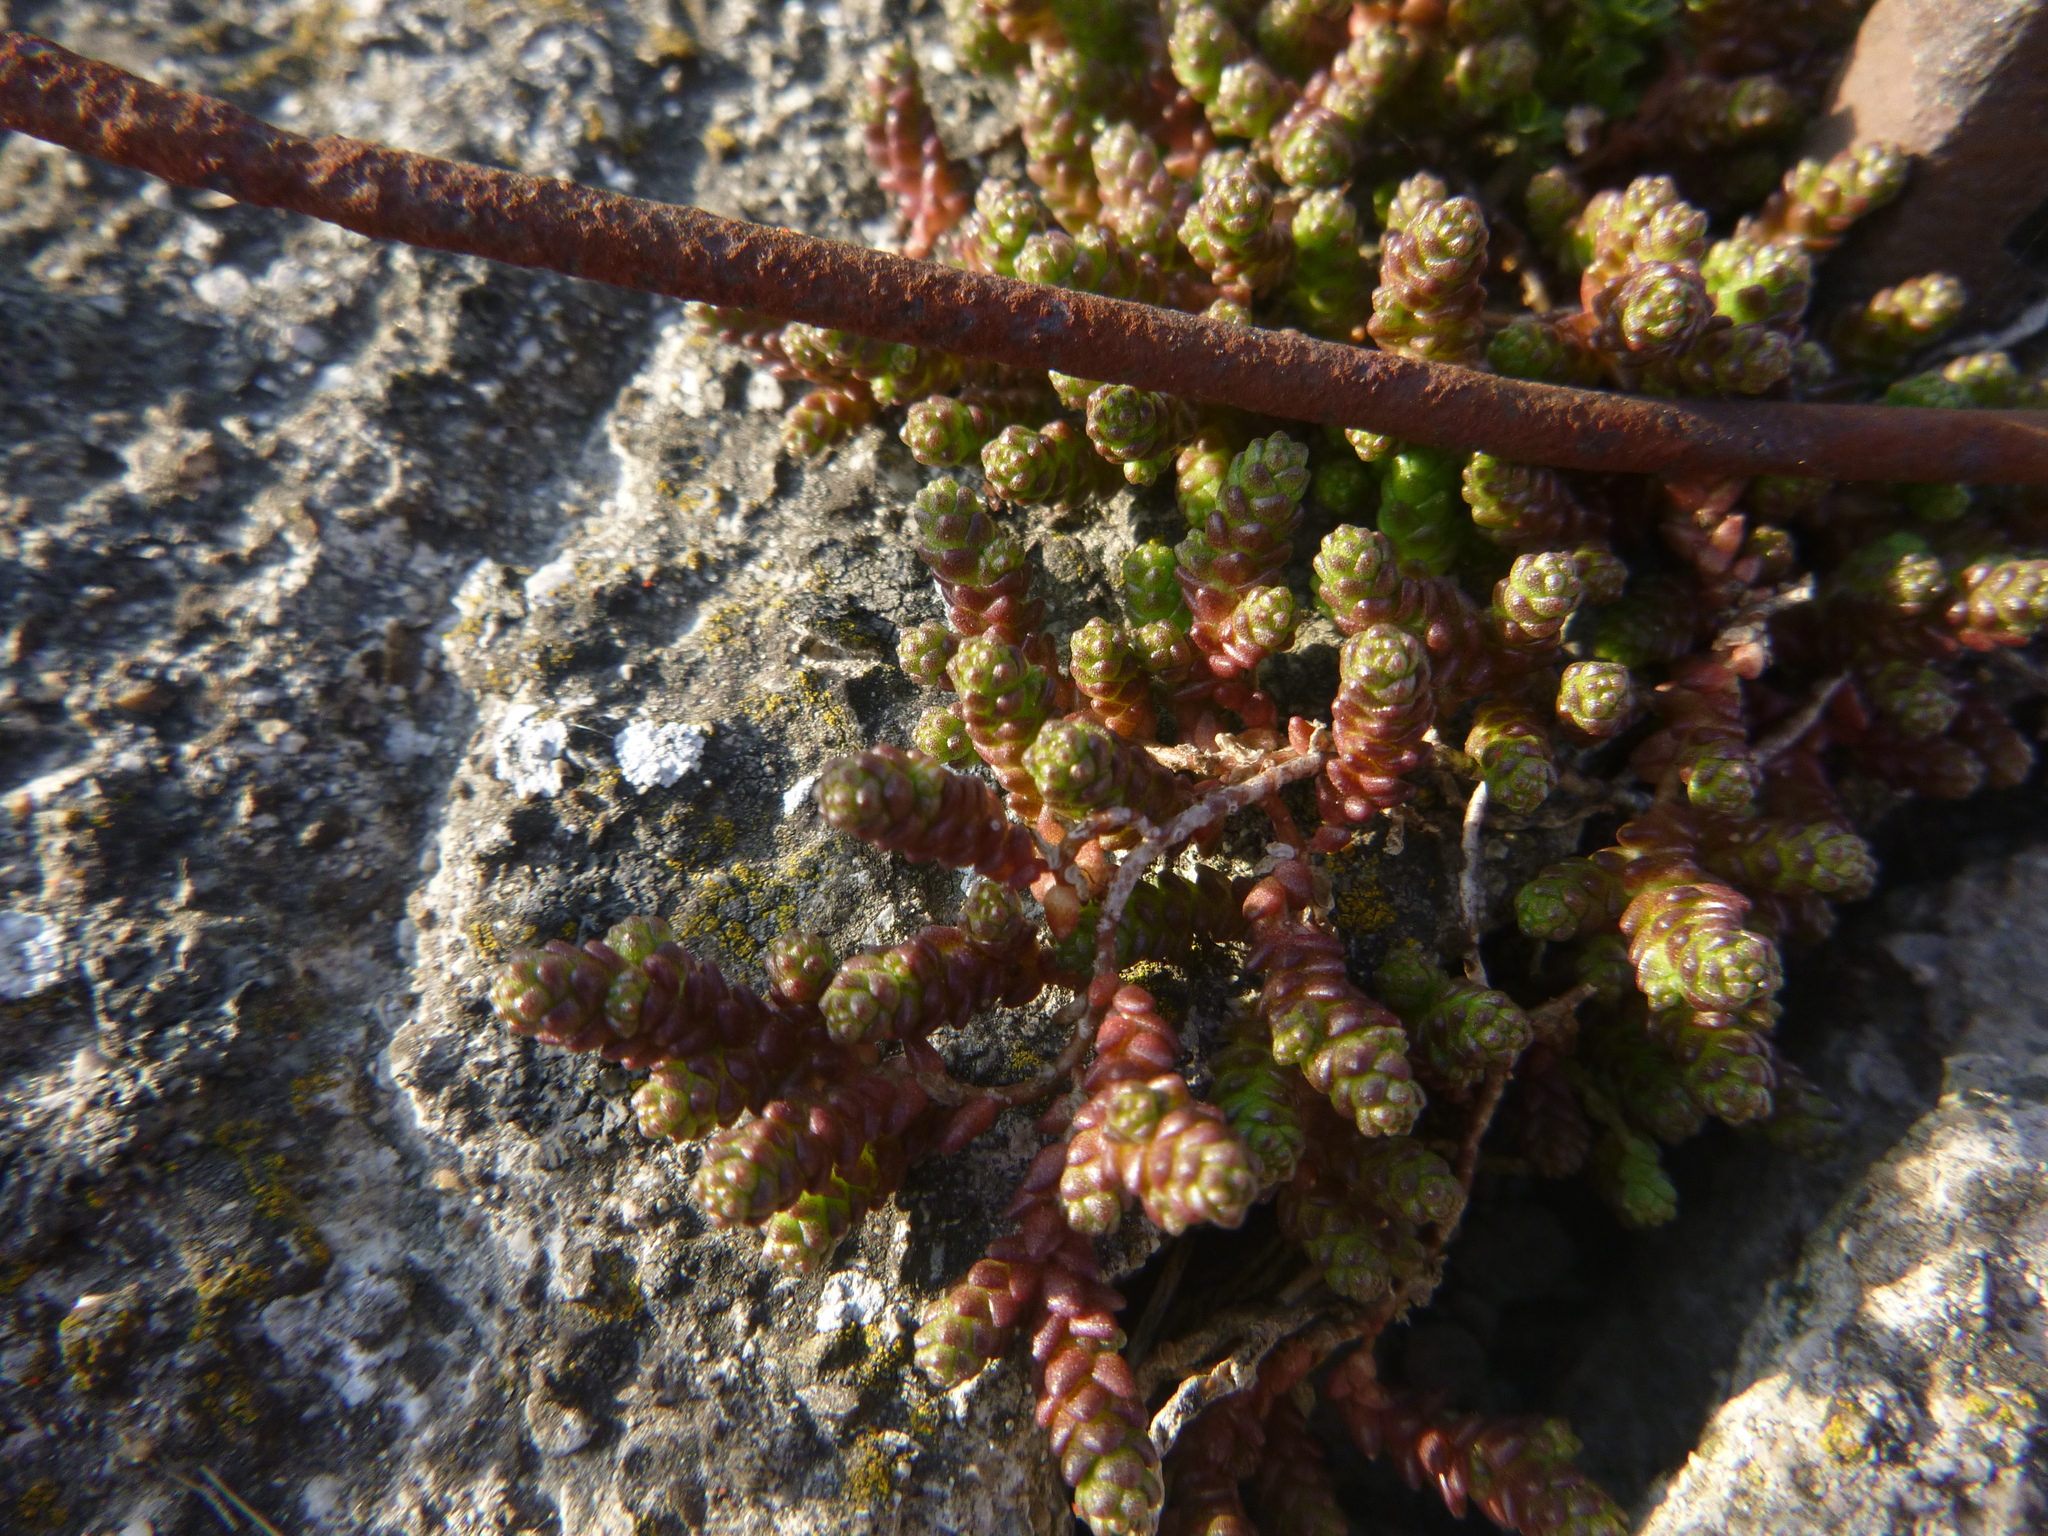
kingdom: Plantae
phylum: Tracheophyta
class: Magnoliopsida
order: Saxifragales
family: Crassulaceae
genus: Sedum
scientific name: Sedum acre
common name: Biting stonecrop
